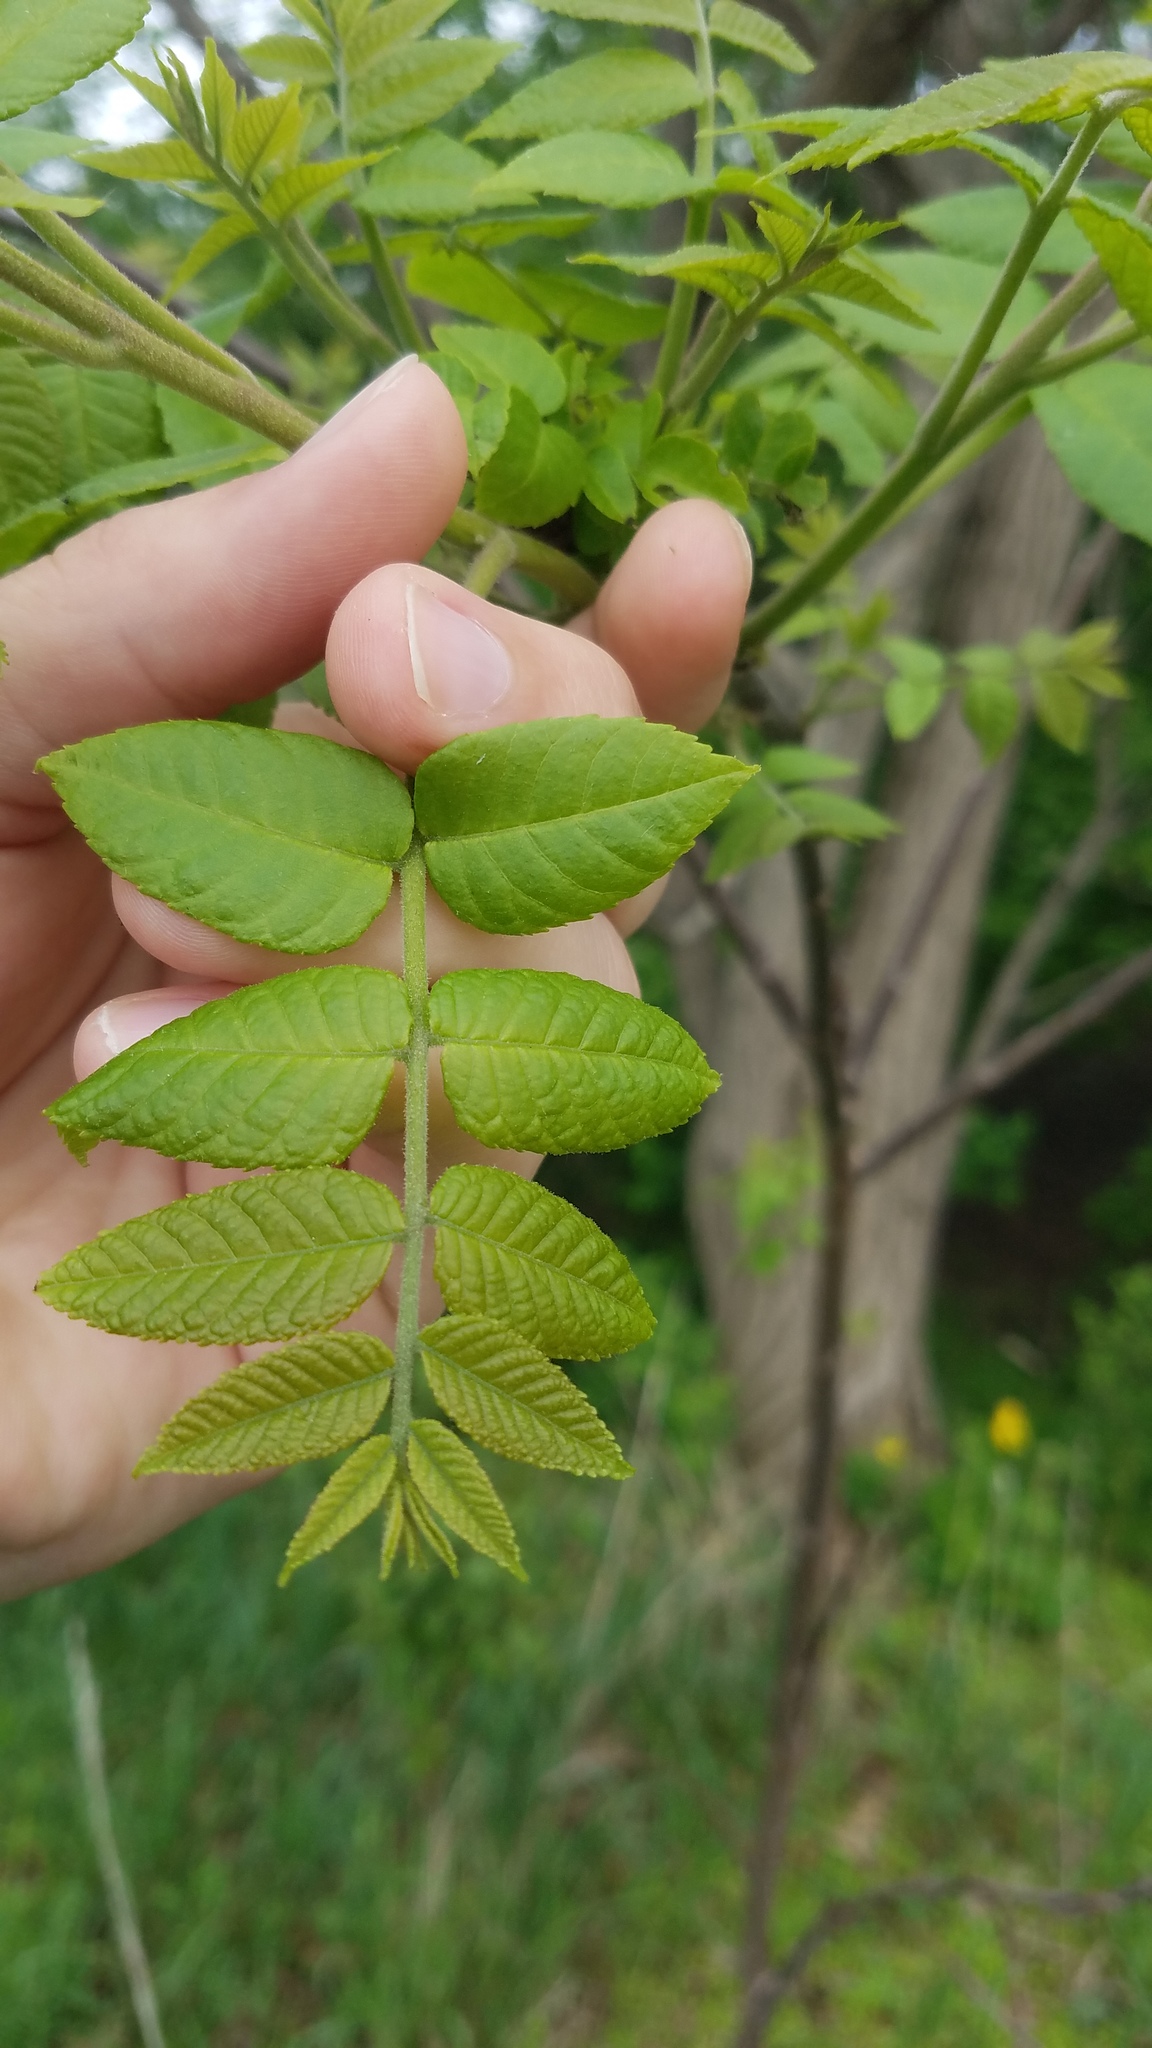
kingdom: Plantae
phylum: Tracheophyta
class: Magnoliopsida
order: Fagales
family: Juglandaceae
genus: Juglans
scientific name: Juglans nigra
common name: Black walnut
